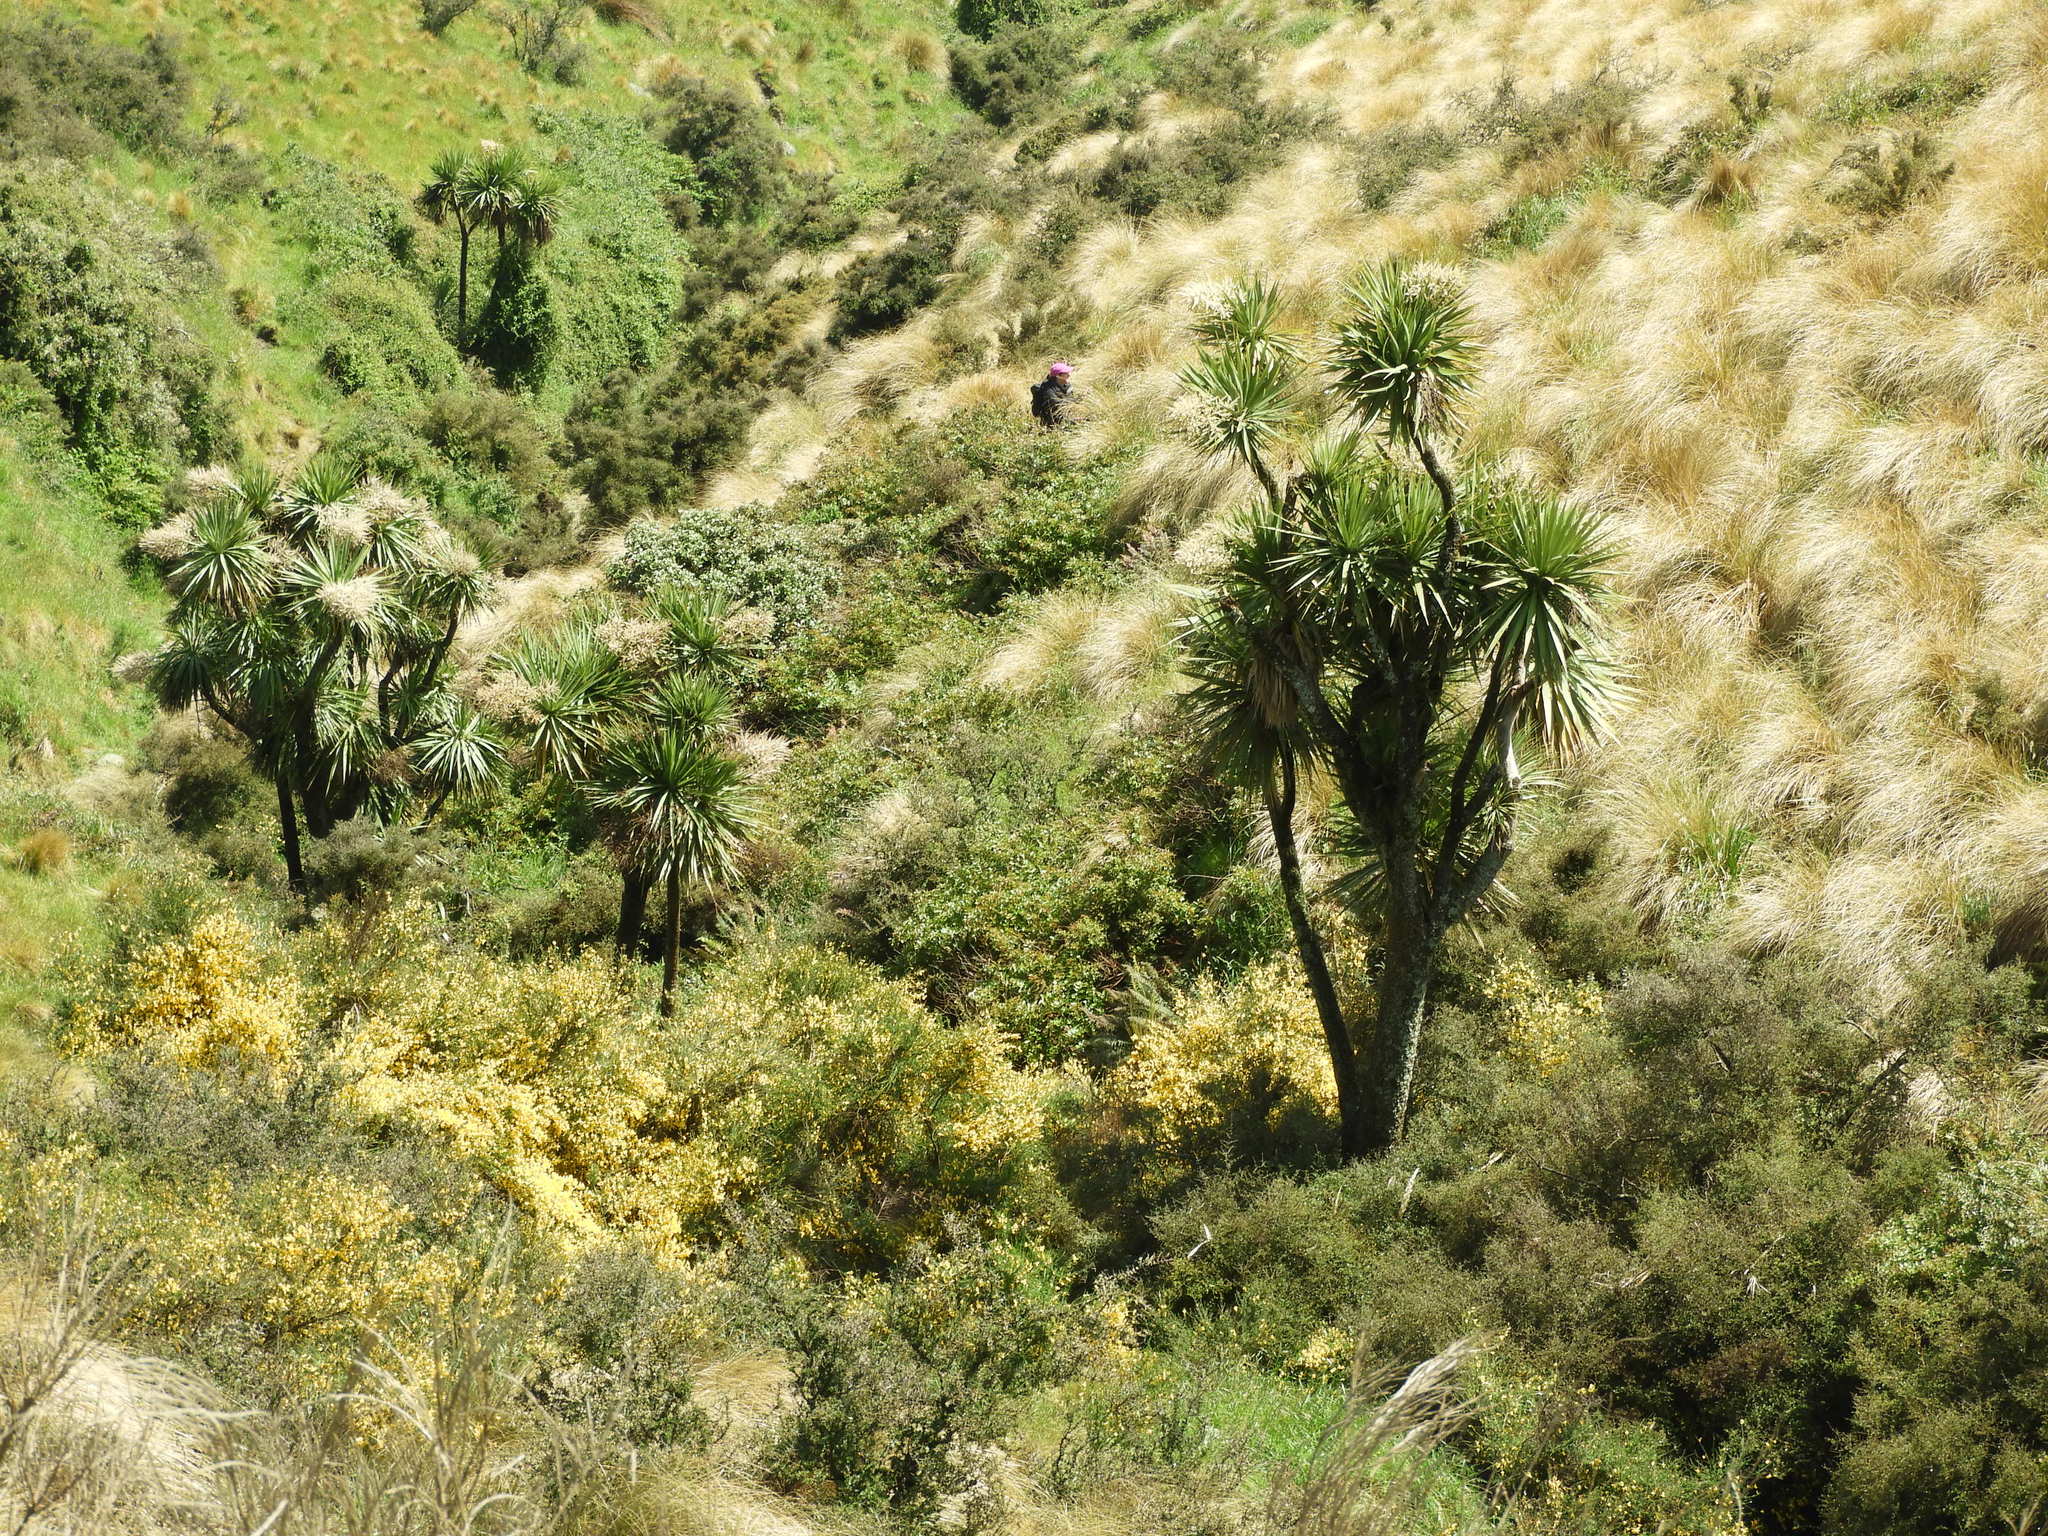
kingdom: Plantae
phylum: Tracheophyta
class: Liliopsida
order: Asparagales
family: Asparagaceae
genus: Cordyline
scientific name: Cordyline australis
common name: Cabbage-palm
